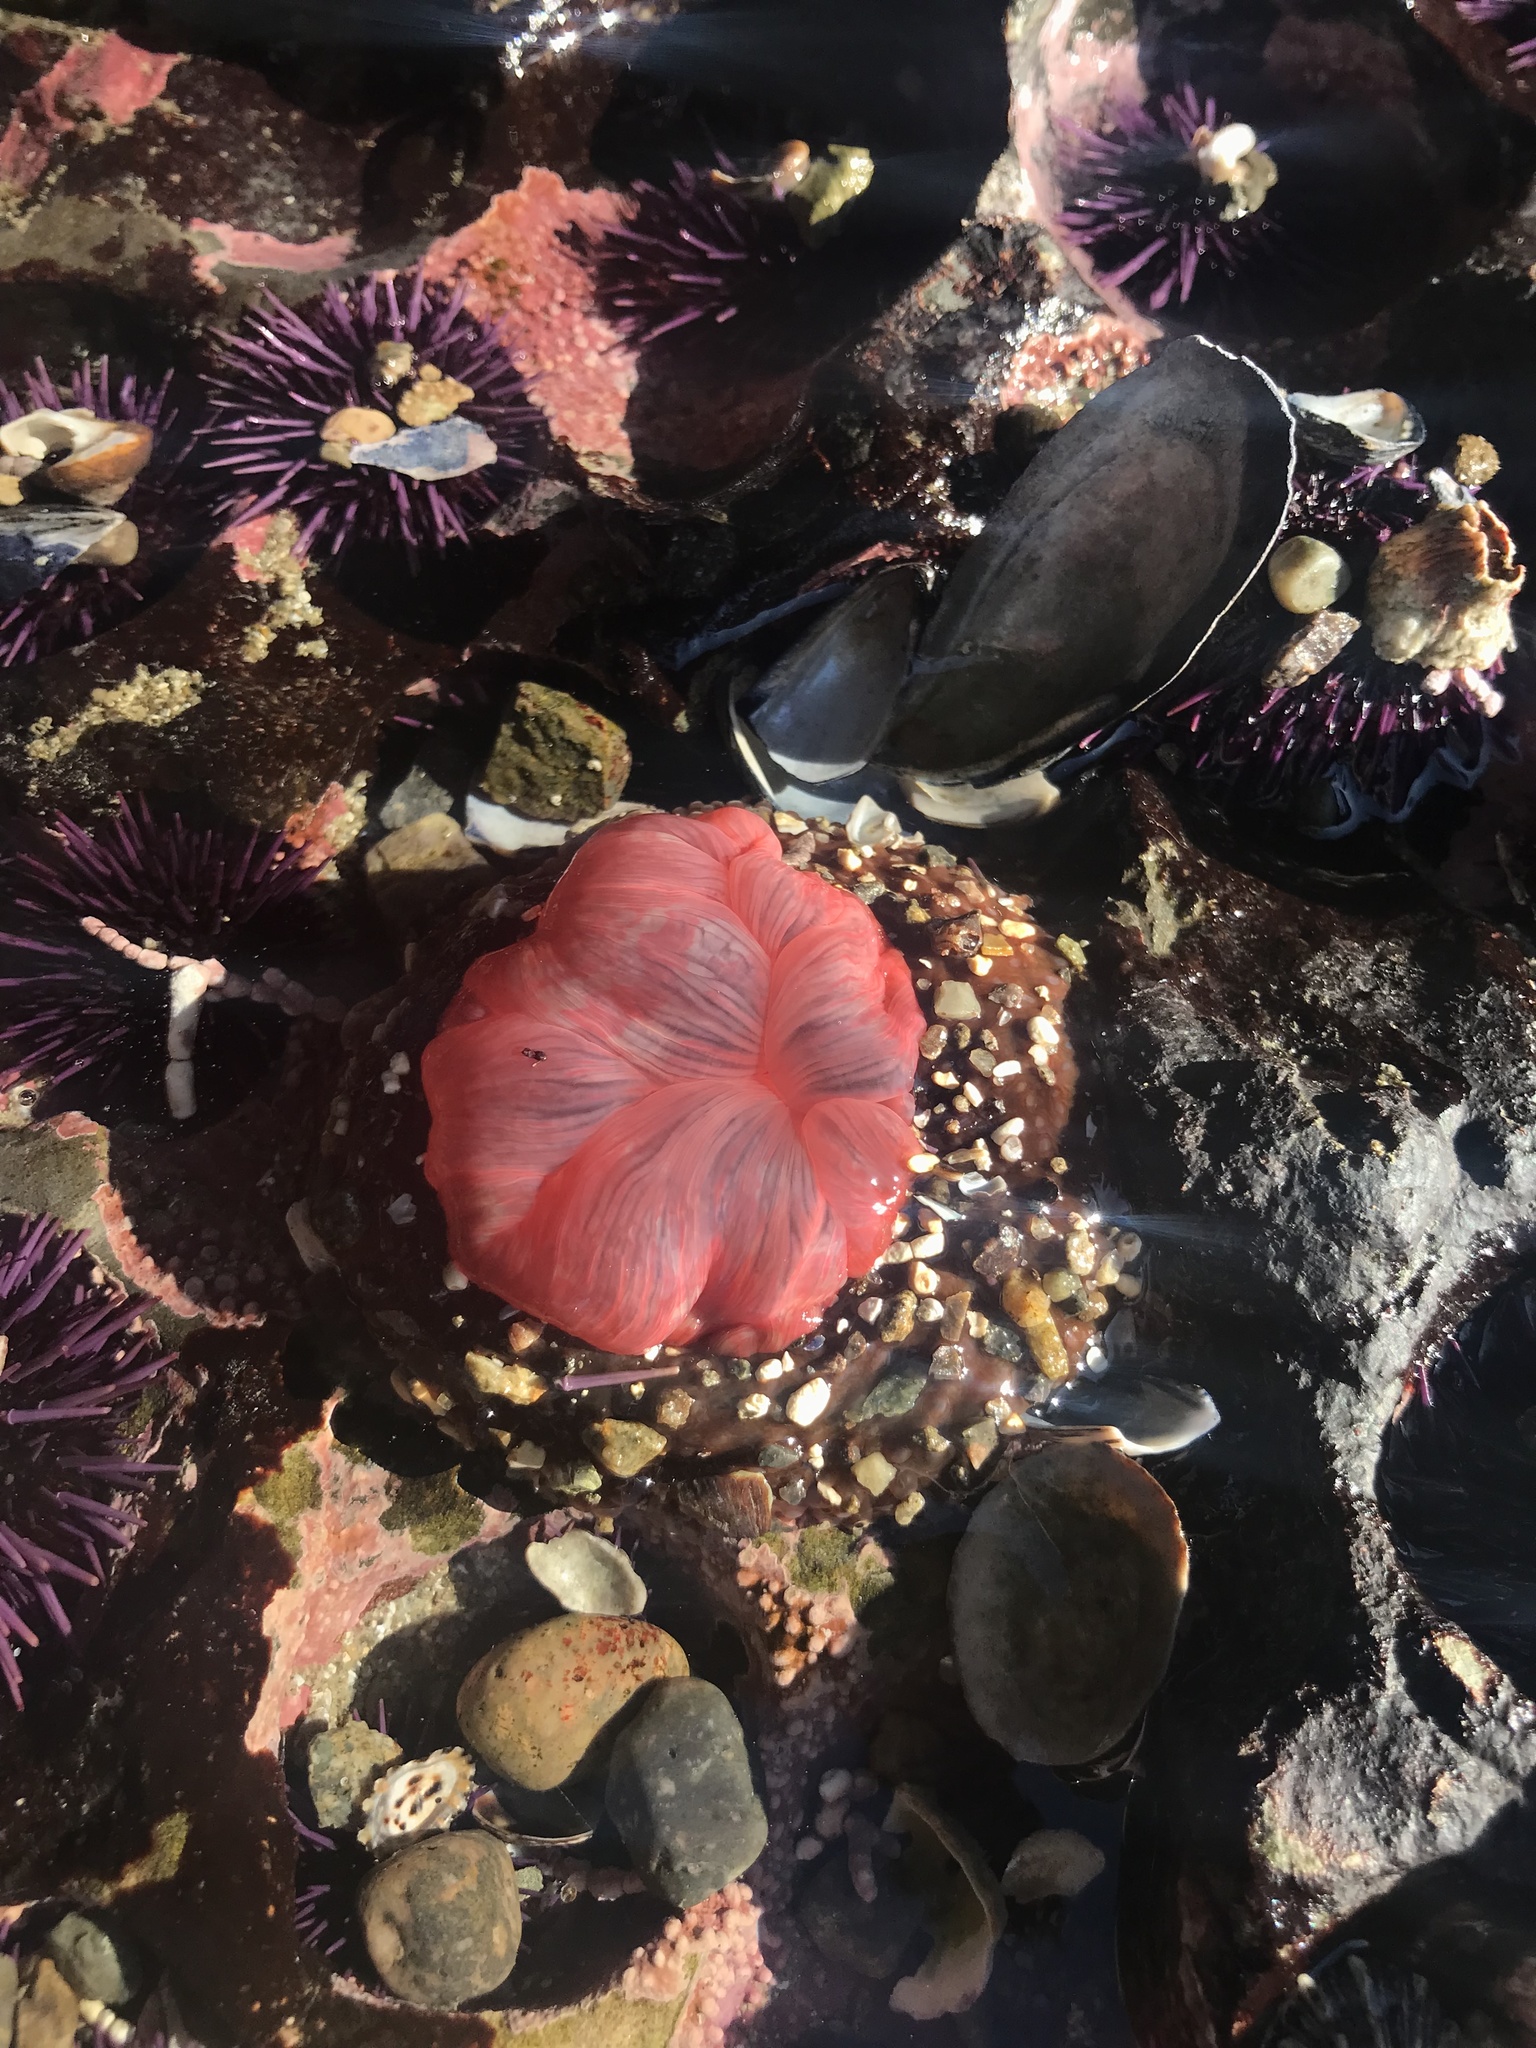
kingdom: Animalia
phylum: Cnidaria
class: Anthozoa
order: Actiniaria
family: Actiniidae
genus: Urticina
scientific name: Urticina clandestina
